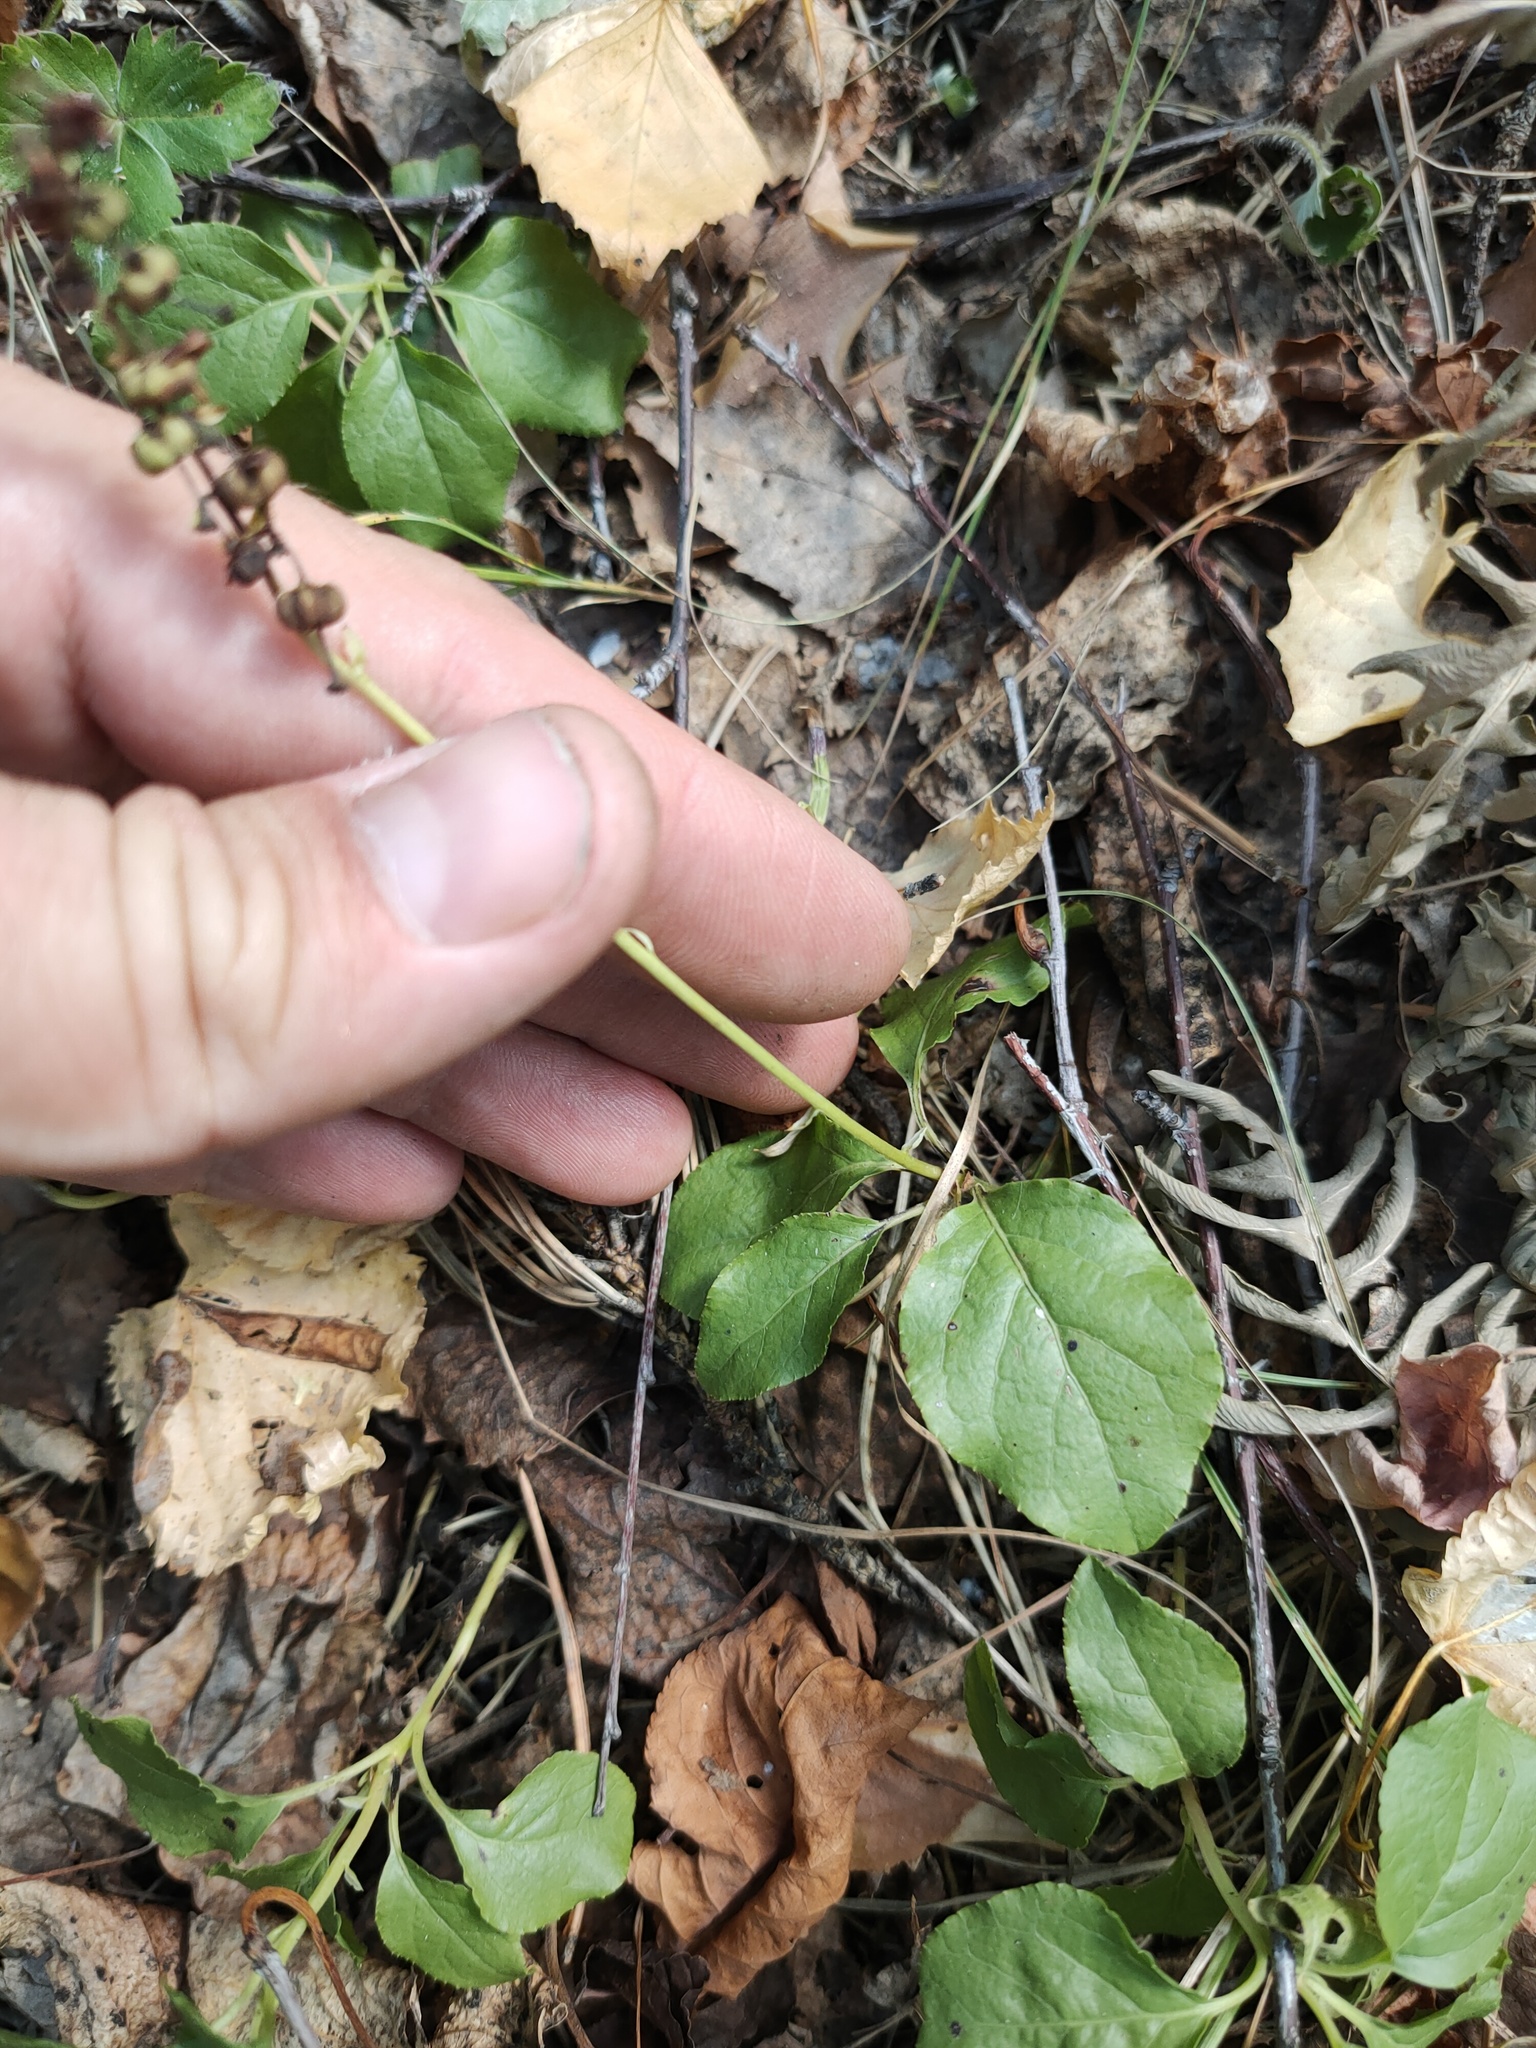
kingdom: Plantae
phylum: Tracheophyta
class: Magnoliopsida
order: Ericales
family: Ericaceae
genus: Orthilia
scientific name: Orthilia secunda
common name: One-sided orthilia
